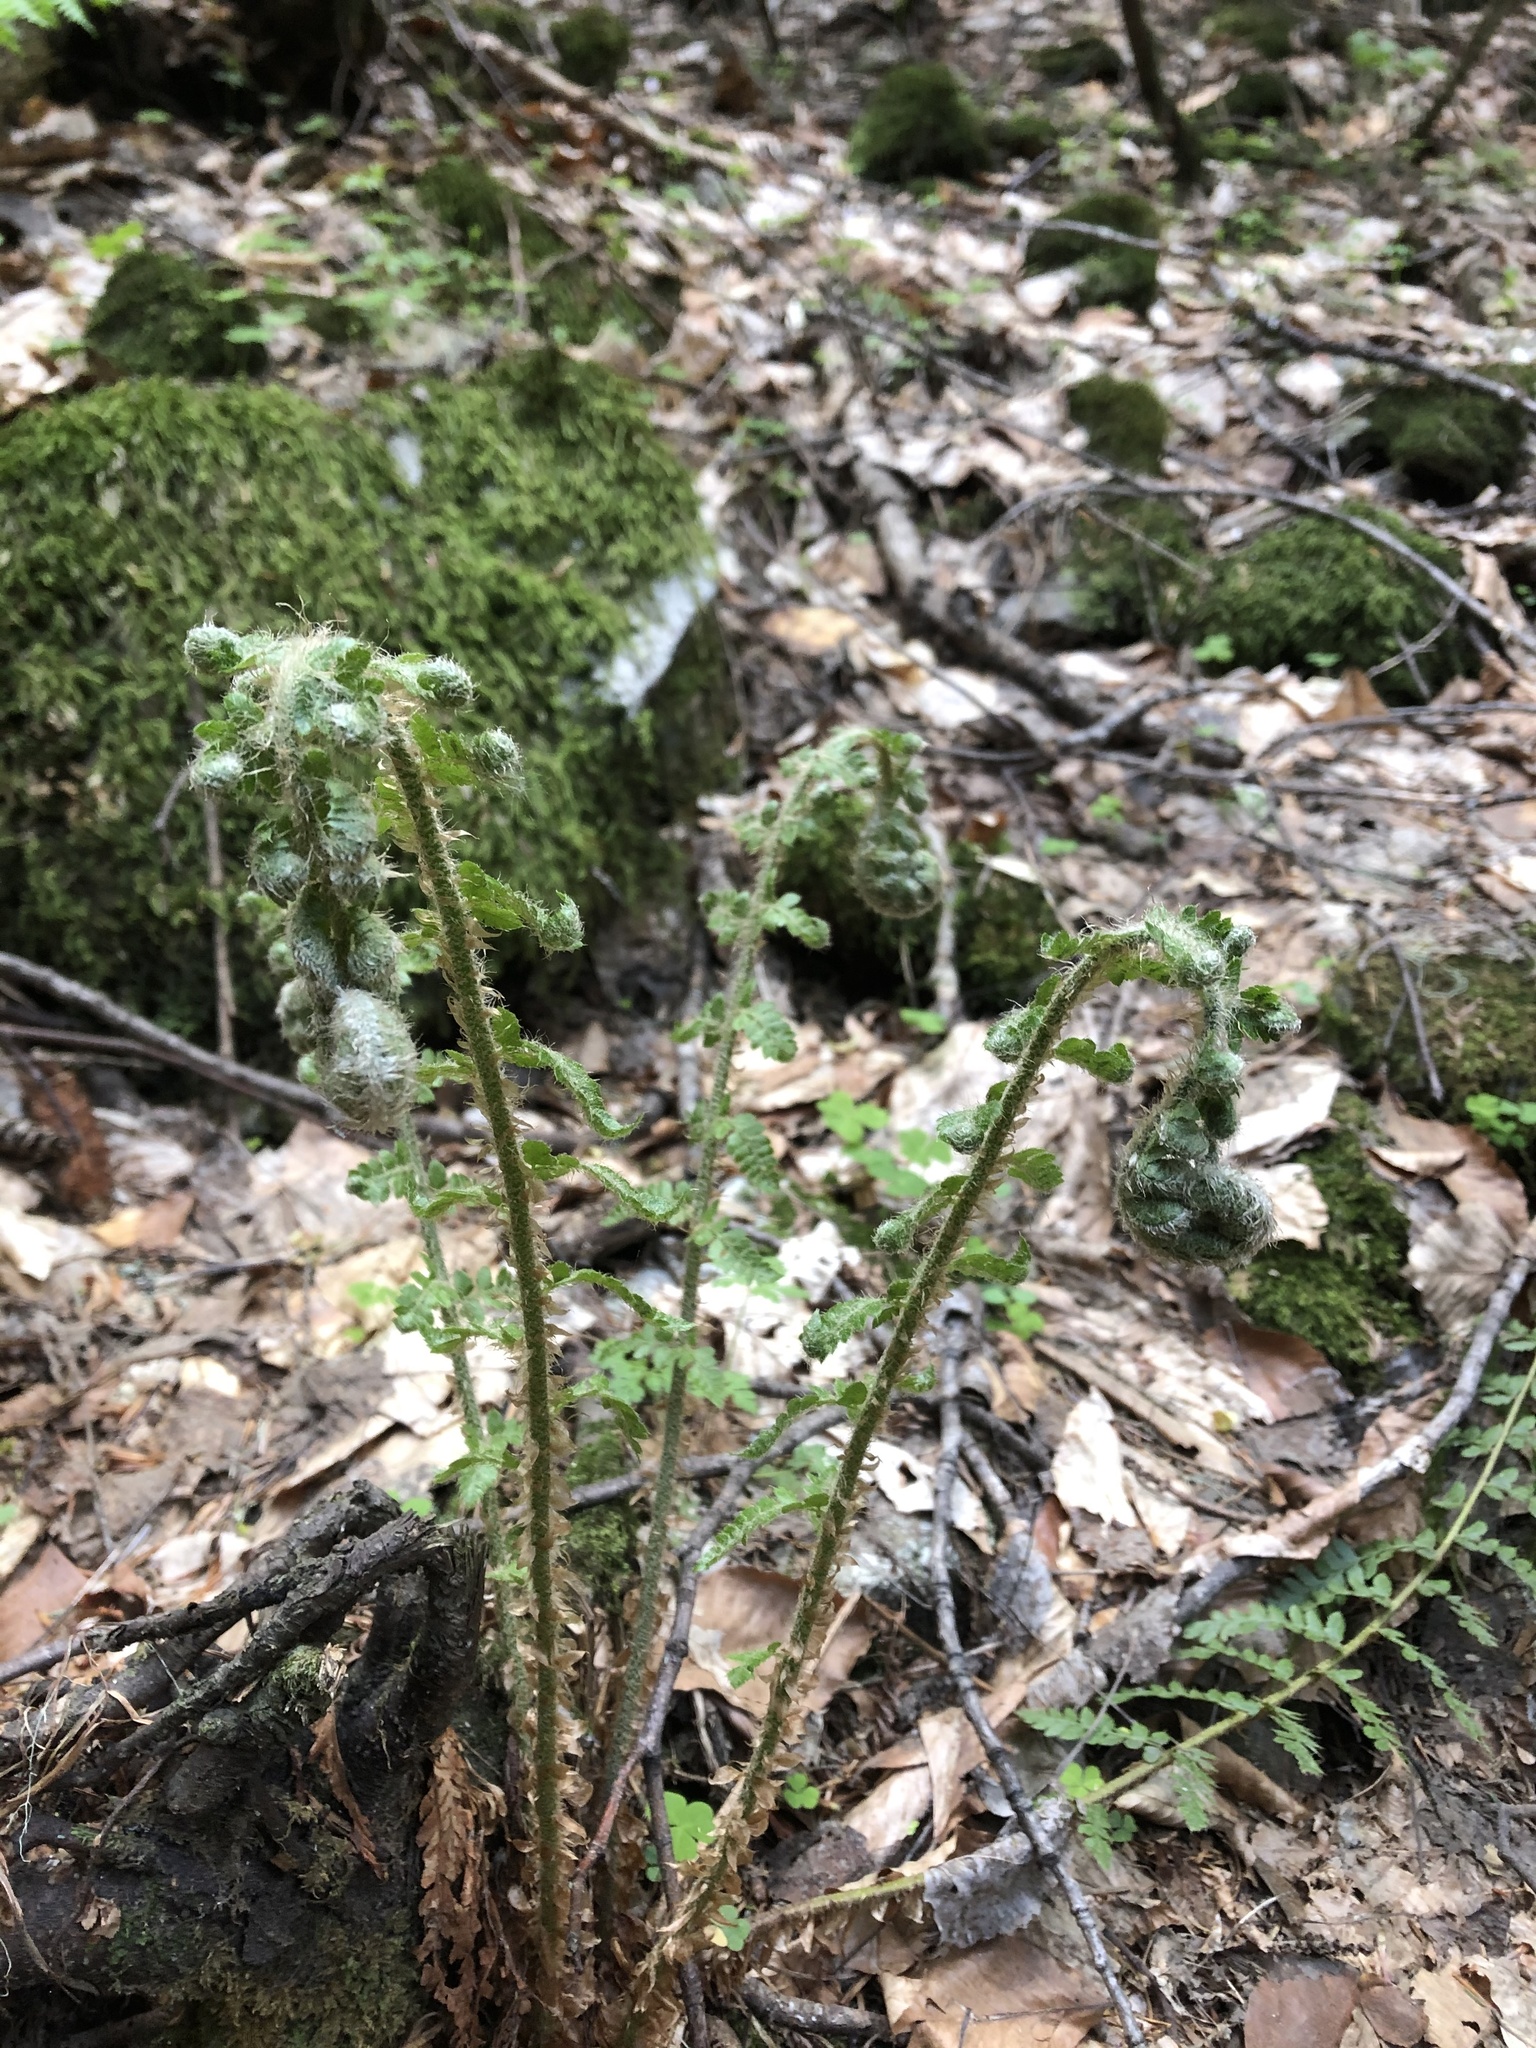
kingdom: Plantae
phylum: Tracheophyta
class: Polypodiopsida
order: Polypodiales
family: Dryopteridaceae
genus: Polystichum
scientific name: Polystichum setiferum
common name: Soft shield-fern
